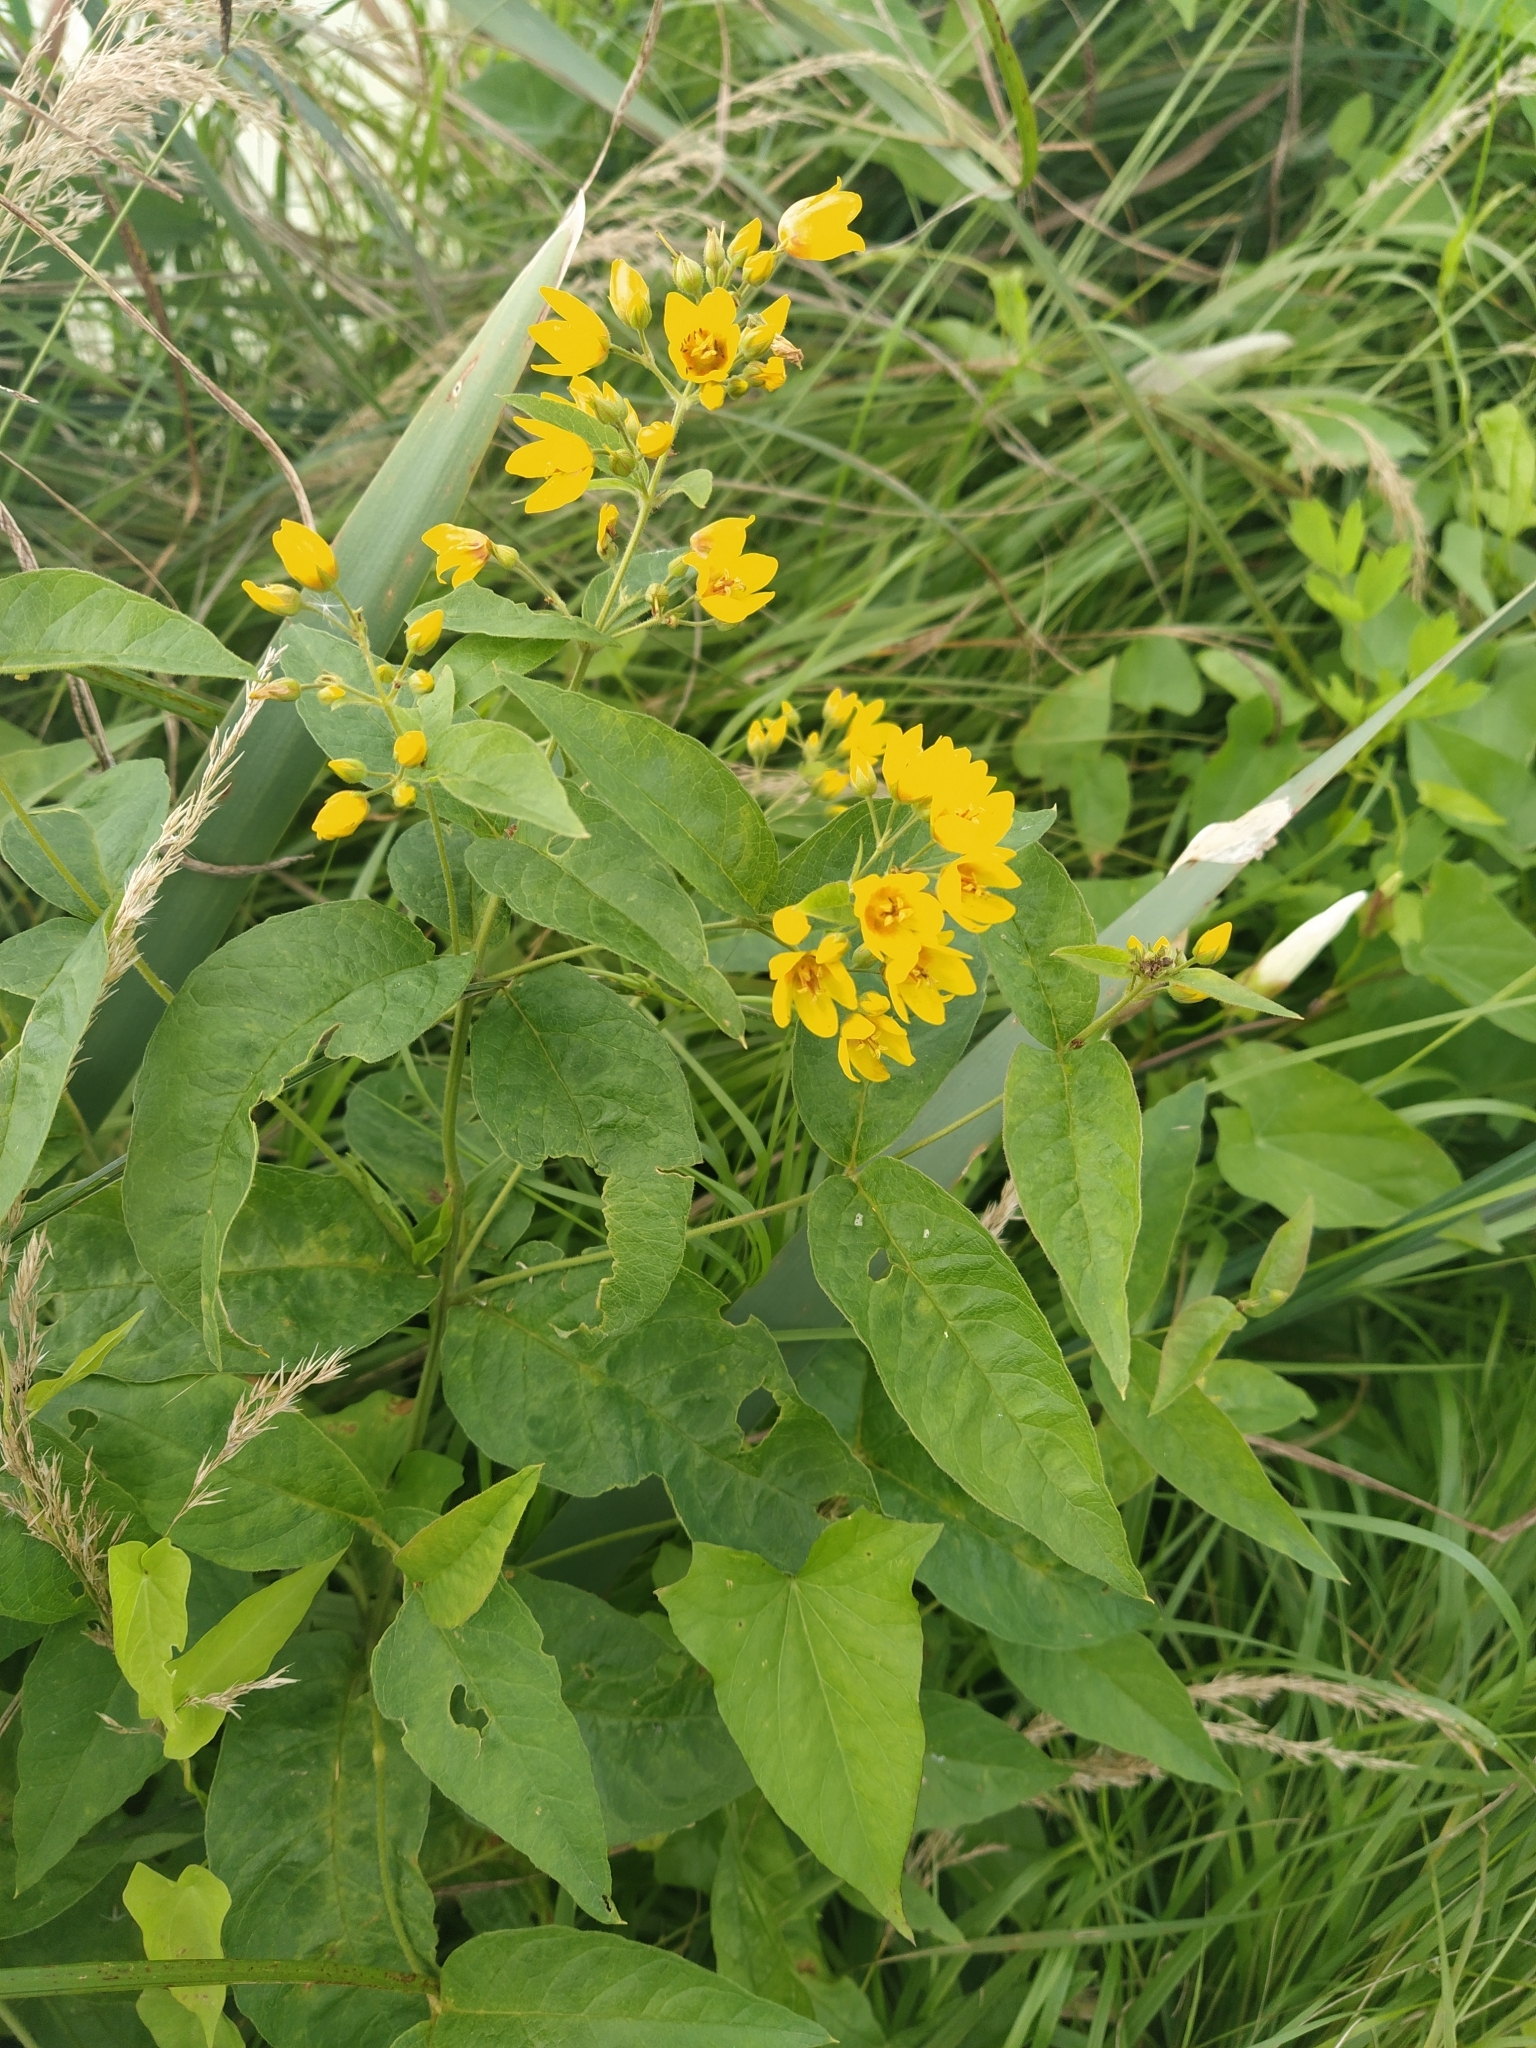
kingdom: Plantae
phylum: Tracheophyta
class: Magnoliopsida
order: Ericales
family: Primulaceae
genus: Lysimachia
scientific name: Lysimachia vulgaris
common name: Yellow loosestrife
